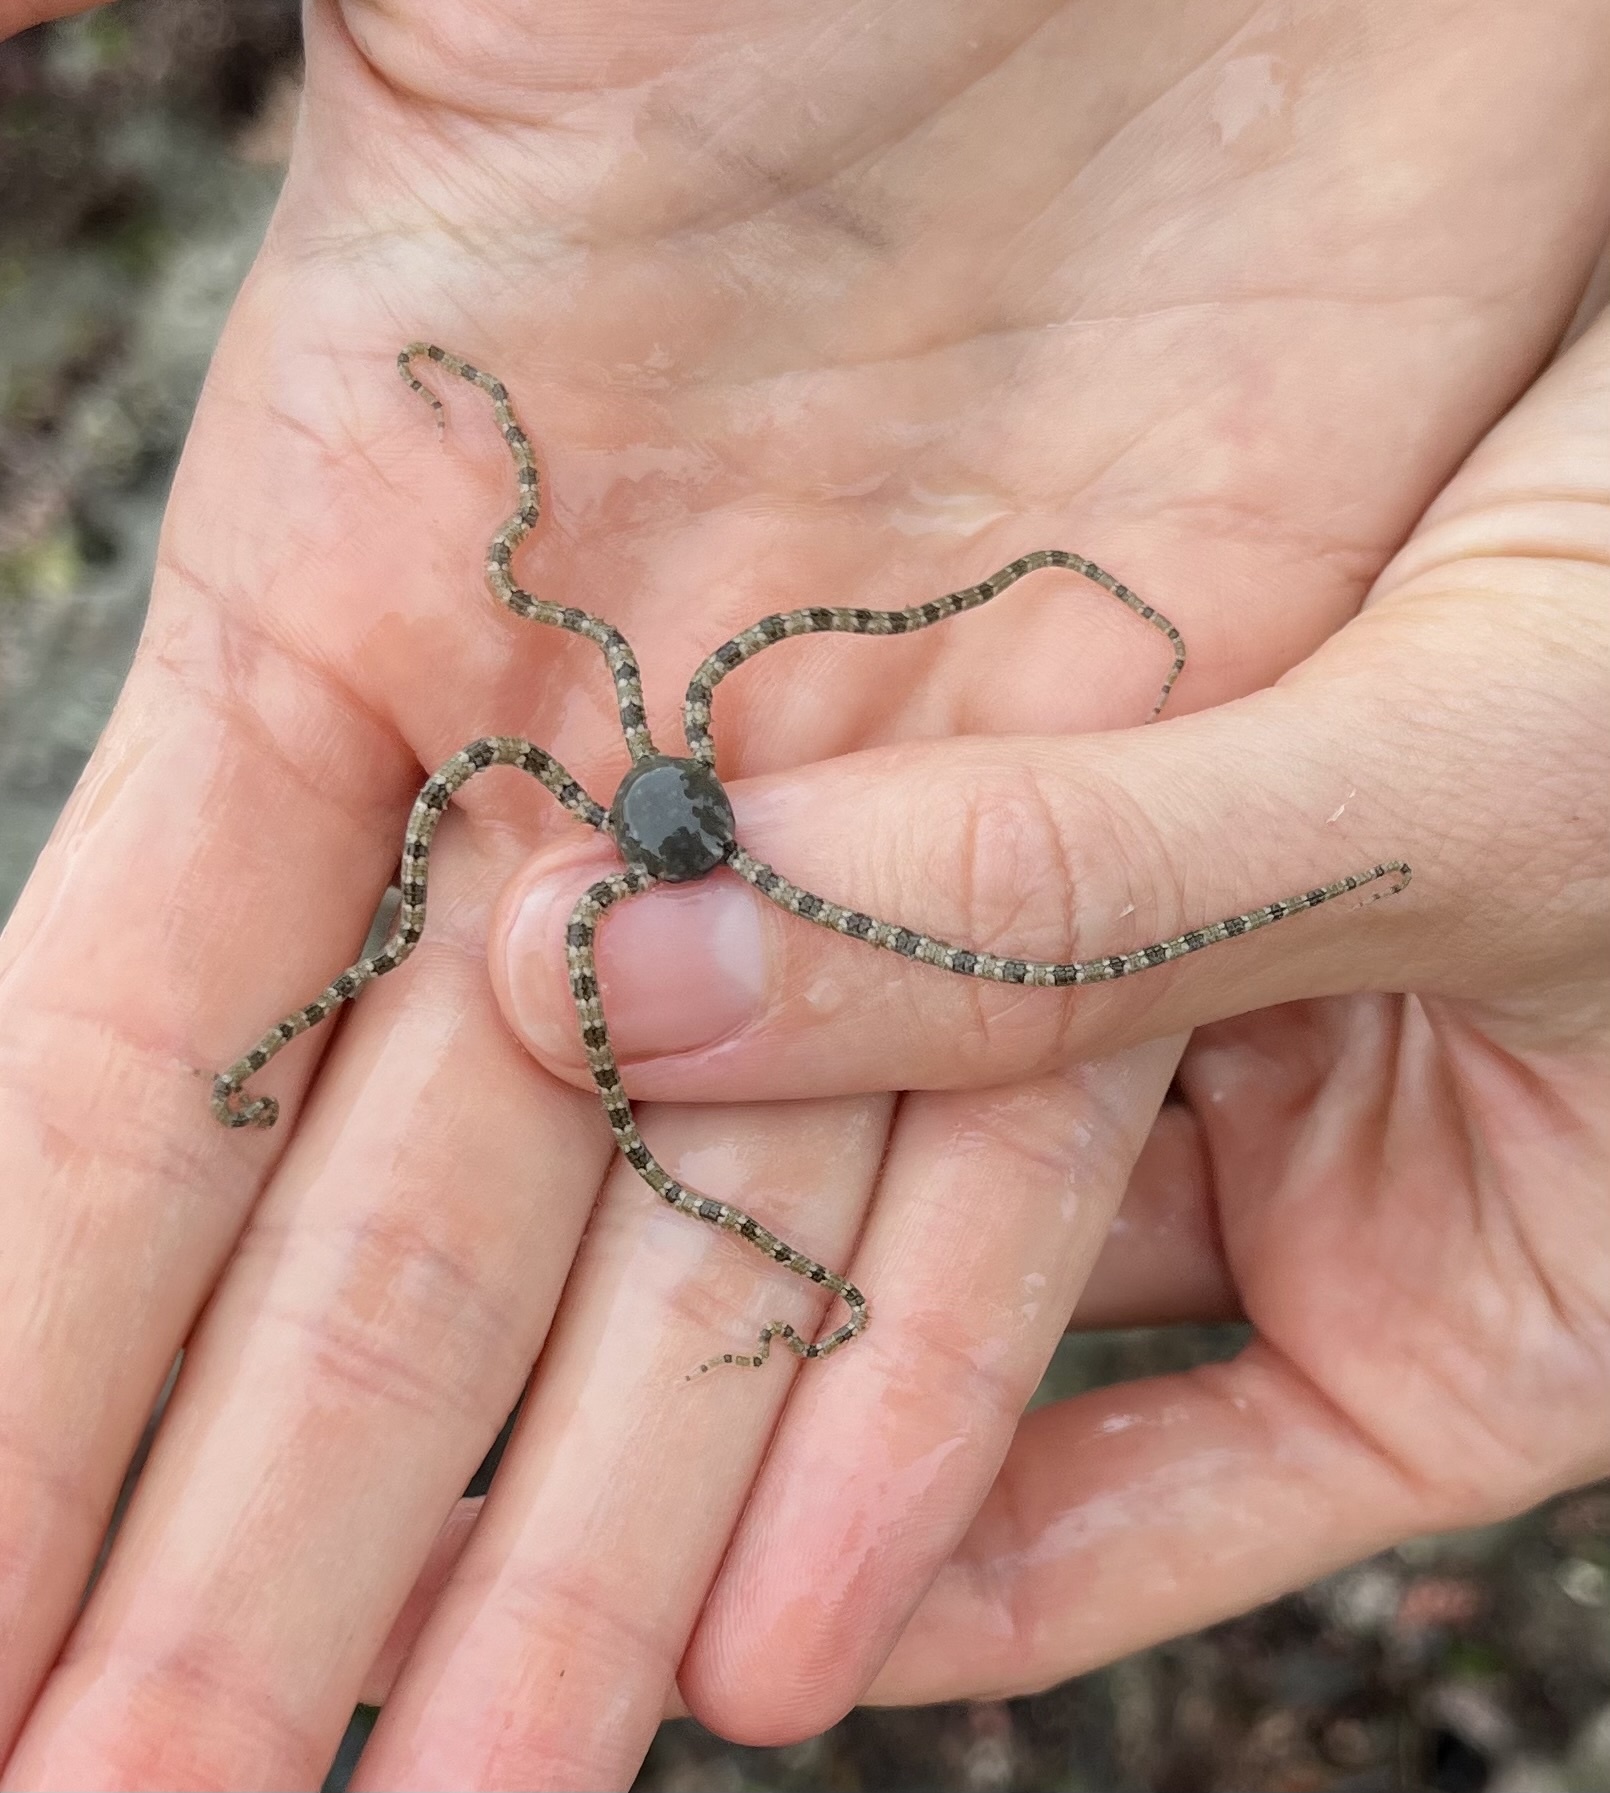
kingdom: Animalia
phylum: Echinodermata
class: Ophiuroidea
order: Amphilepidida
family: Ophionereididae
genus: Ophionereis
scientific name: Ophionereis annulata
